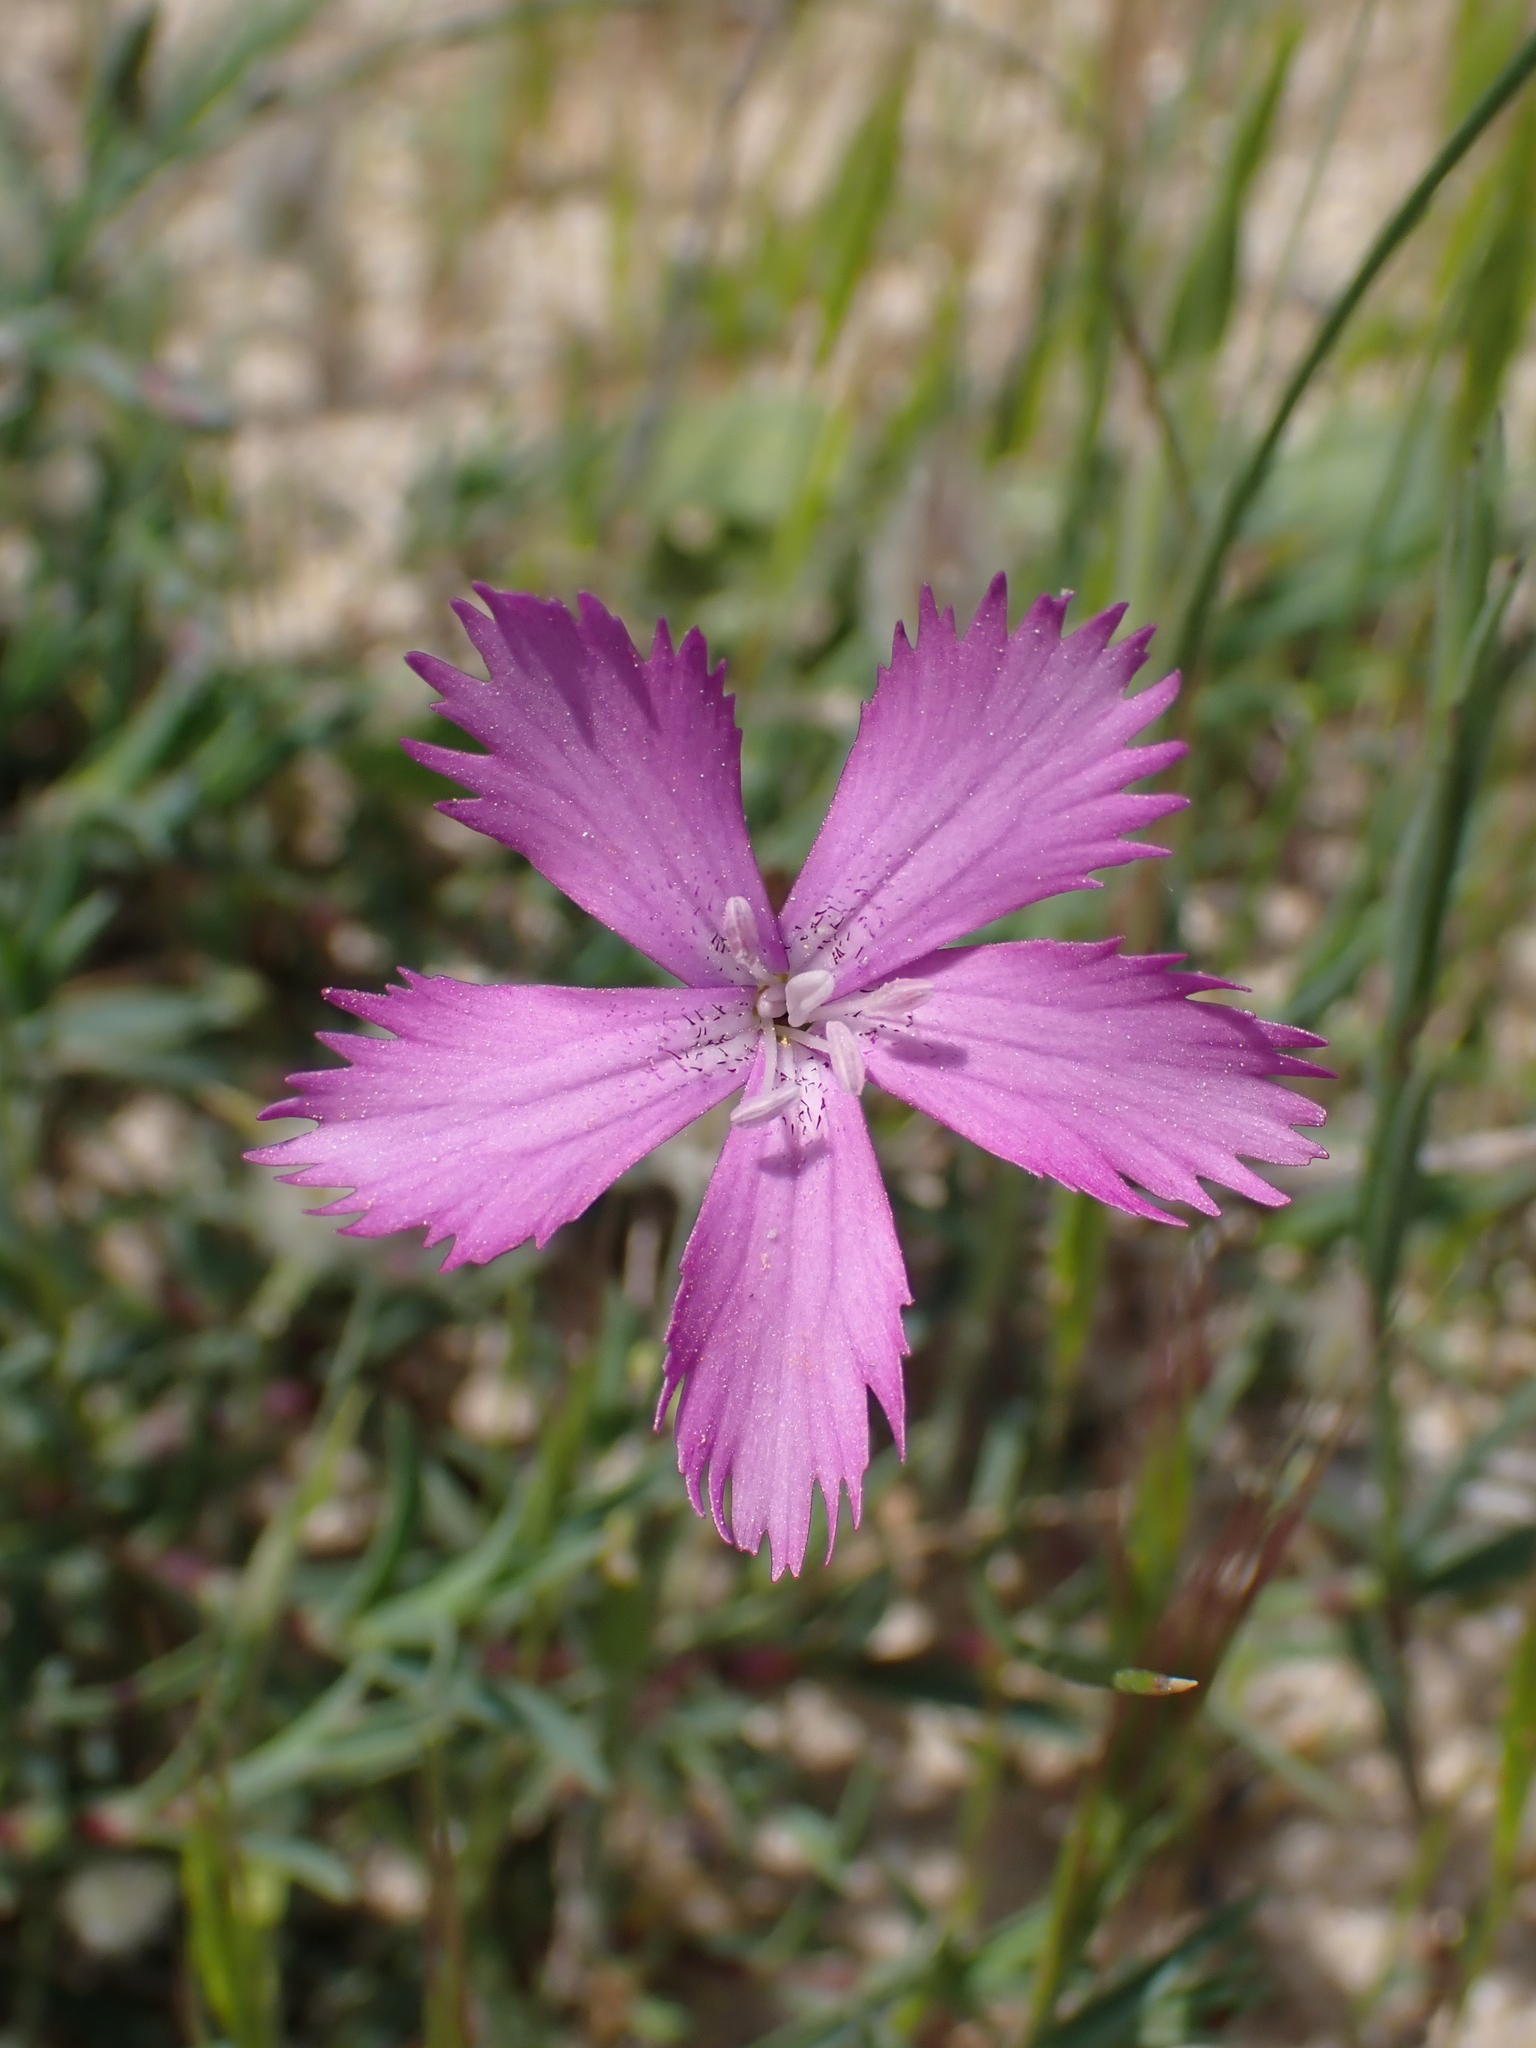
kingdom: Plantae
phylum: Tracheophyta
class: Magnoliopsida
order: Caryophyllales
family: Caryophyllaceae
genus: Dianthus
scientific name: Dianthus gallicus
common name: Jersey pink
